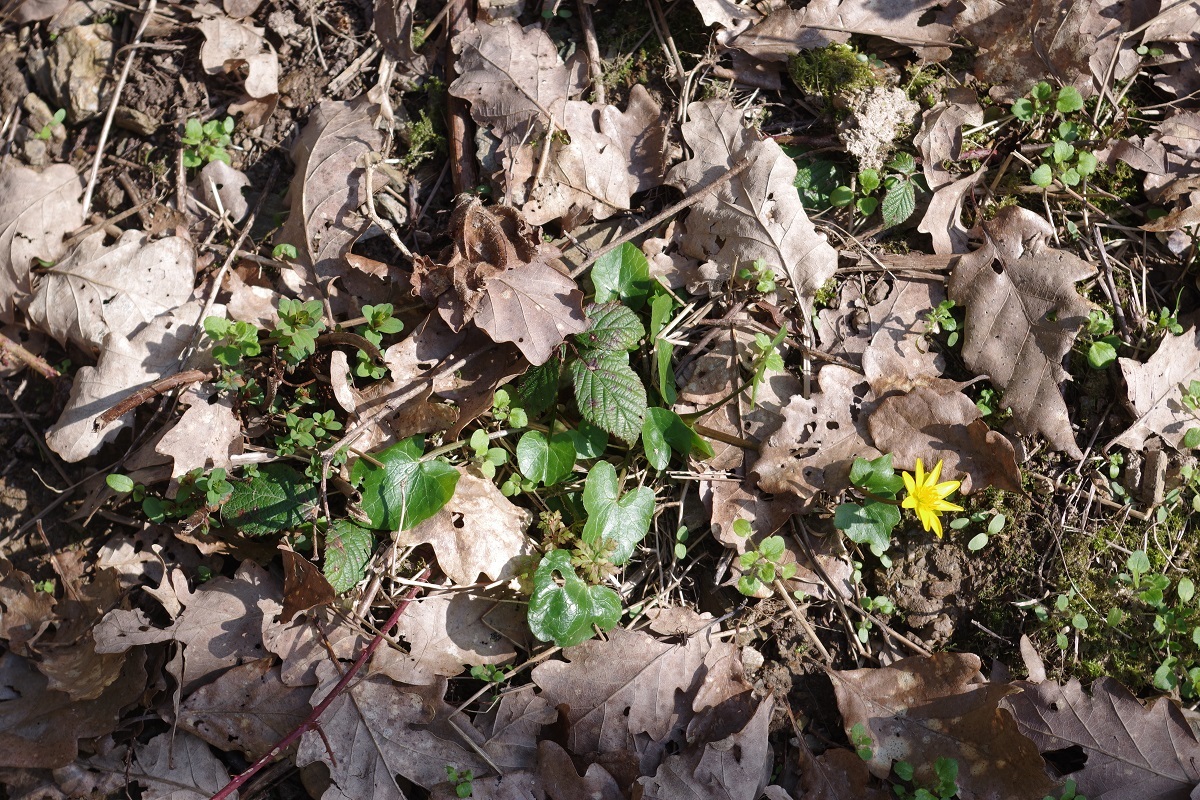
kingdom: Plantae
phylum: Tracheophyta
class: Magnoliopsida
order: Ranunculales
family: Ranunculaceae
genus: Ficaria
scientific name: Ficaria verna
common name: Lesser celandine
